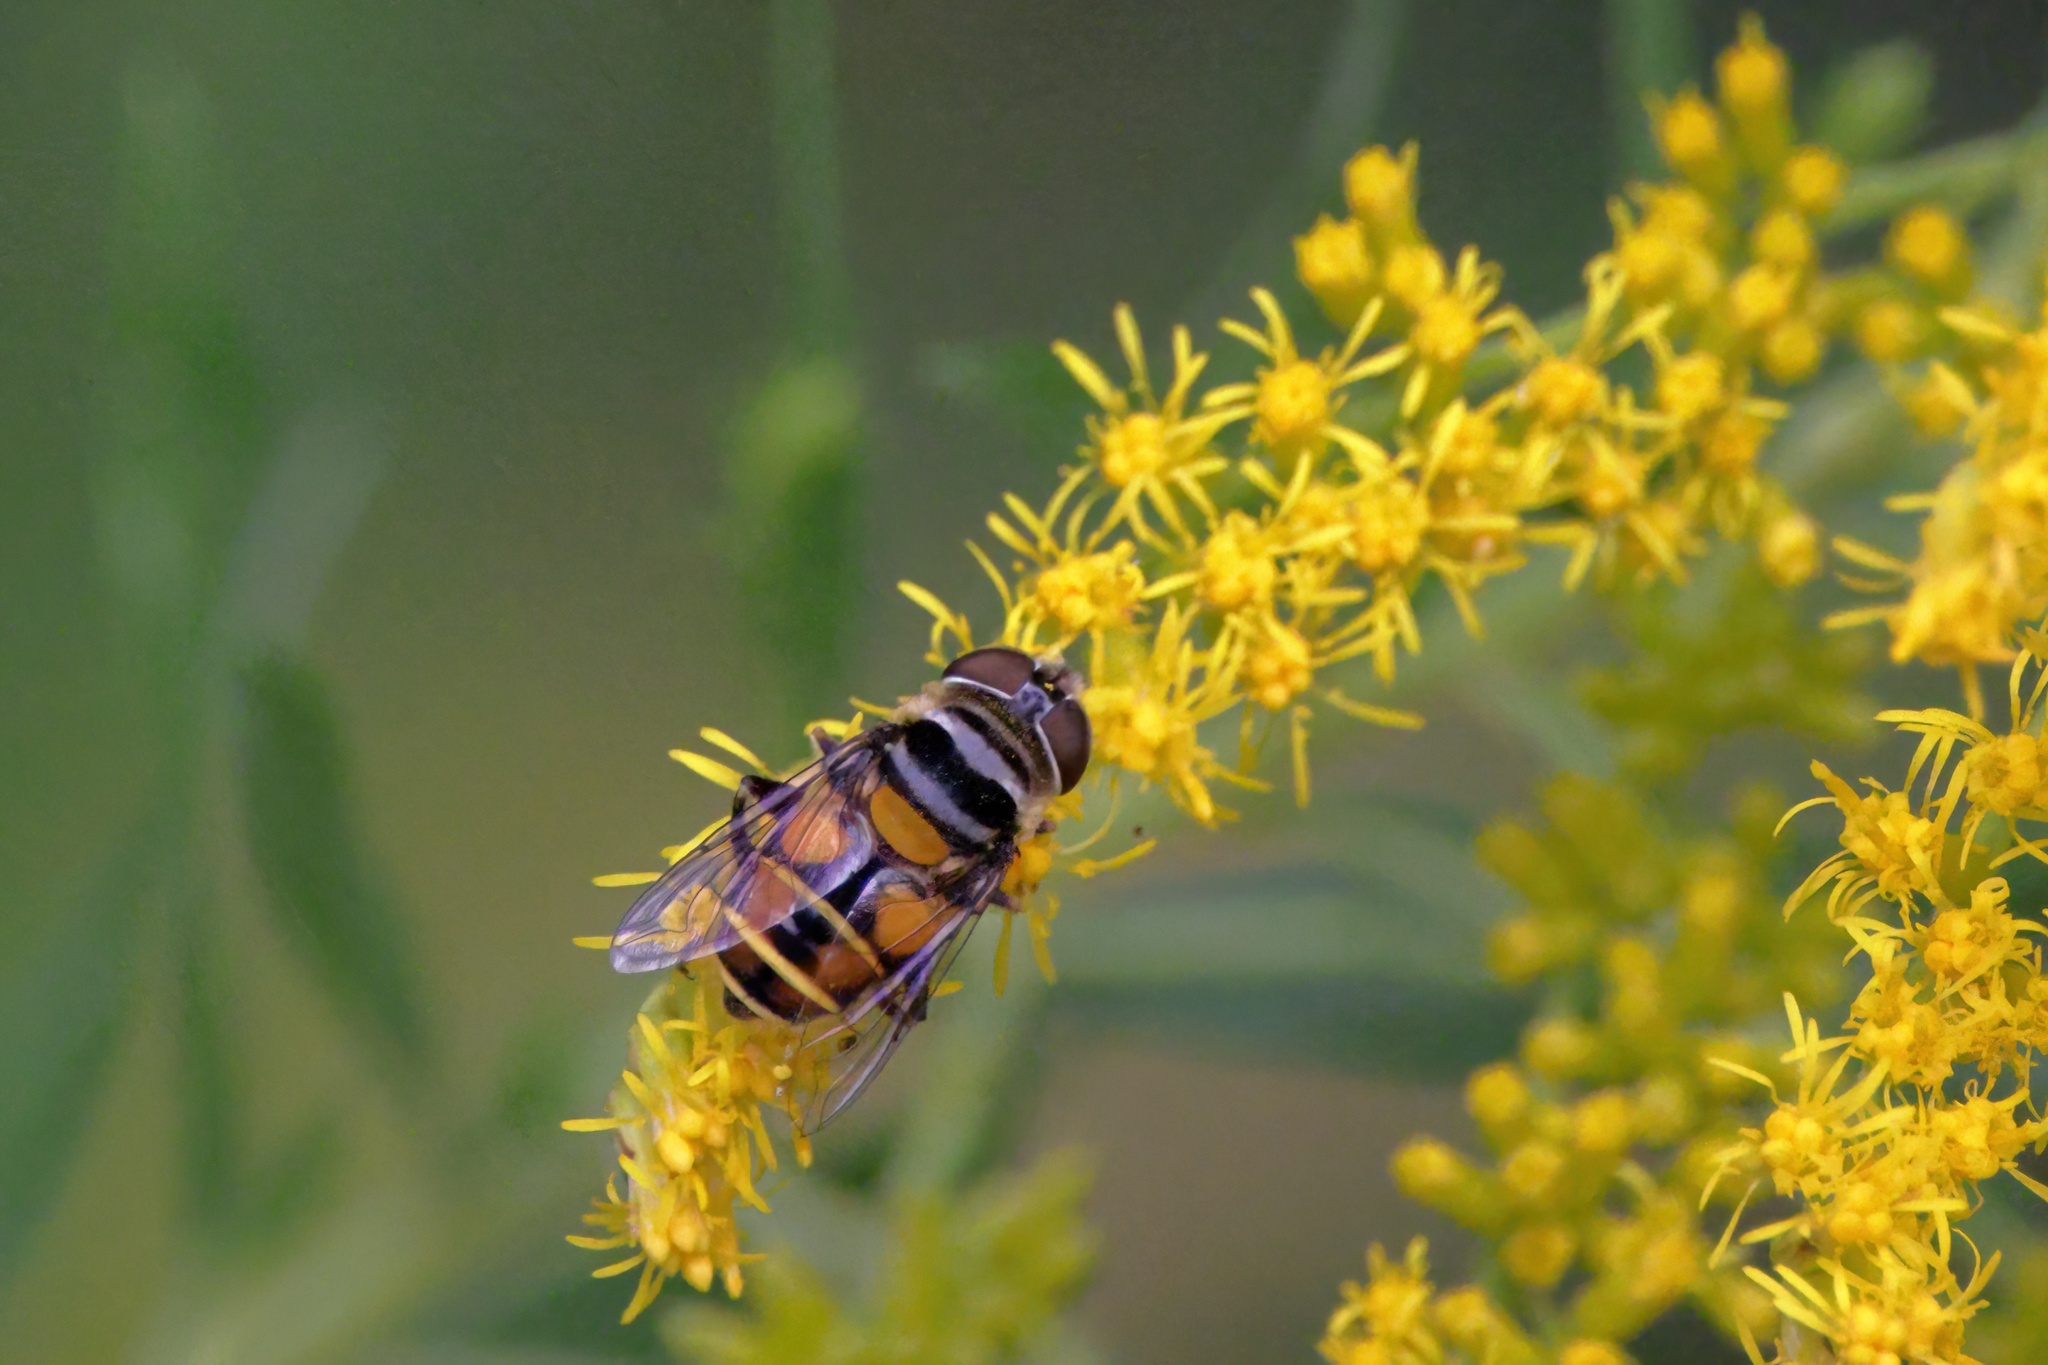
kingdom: Animalia
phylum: Arthropoda
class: Insecta
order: Diptera
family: Syrphidae
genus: Palpada
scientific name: Palpada agrorum
